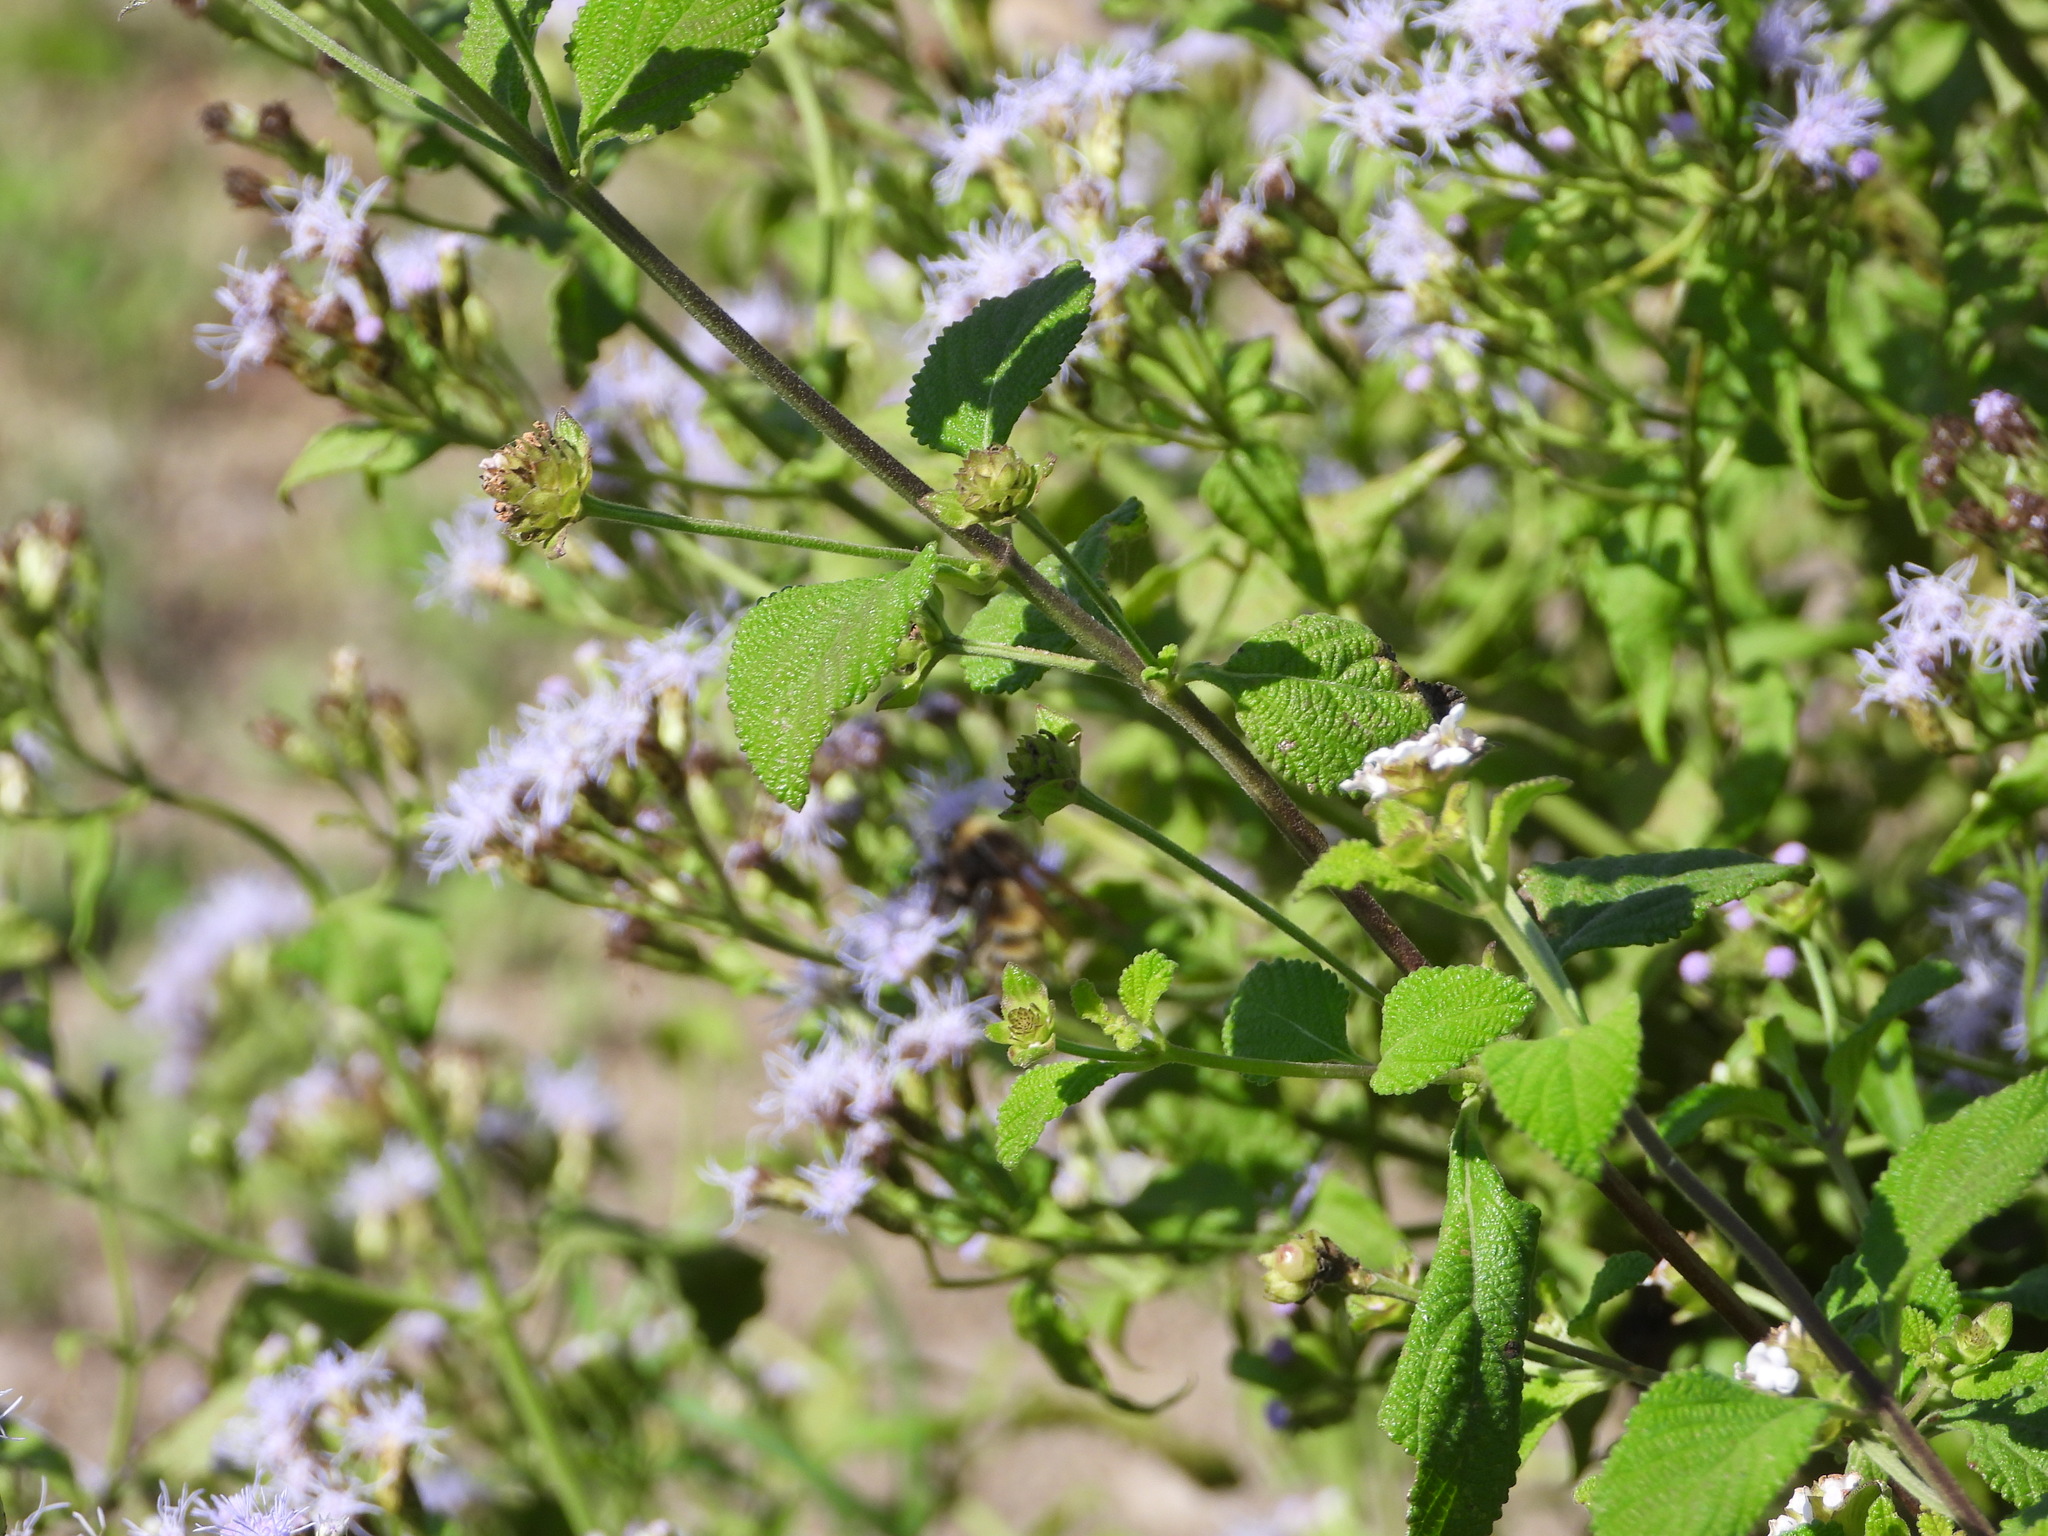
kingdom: Animalia
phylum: Arthropoda
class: Insecta
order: Hymenoptera
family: Apidae
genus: Bombus
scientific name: Bombus pensylvanicus
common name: Bumble bee
